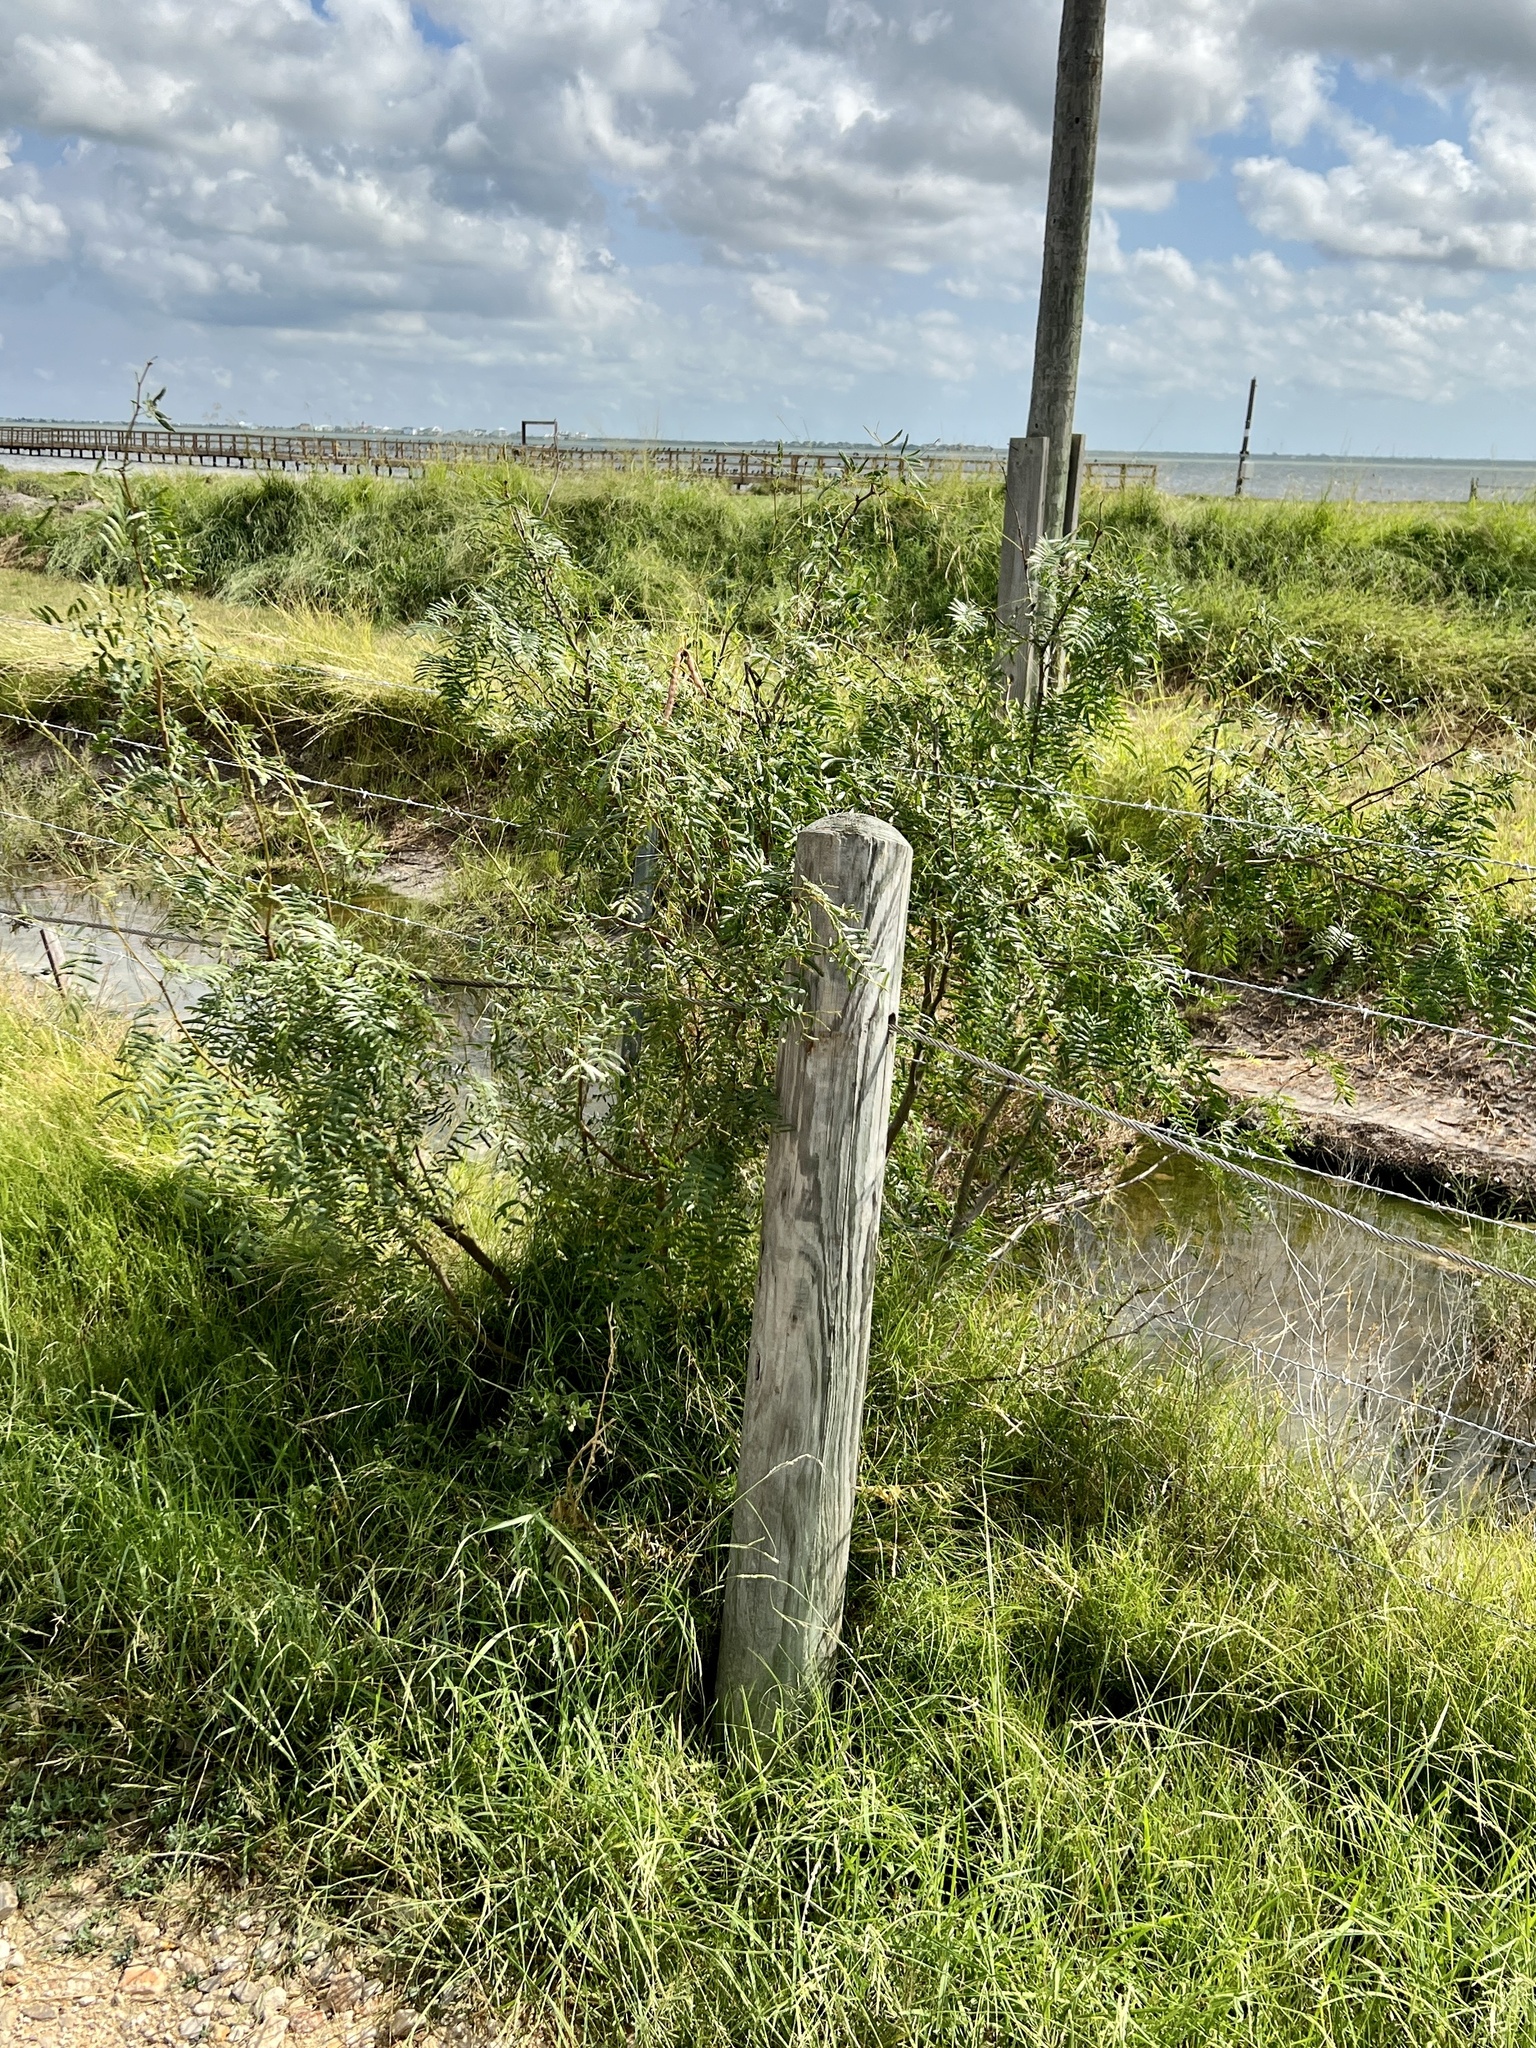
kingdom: Plantae
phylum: Tracheophyta
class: Magnoliopsida
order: Fabales
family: Fabaceae
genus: Prosopis
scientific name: Prosopis glandulosa
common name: Honey mesquite
